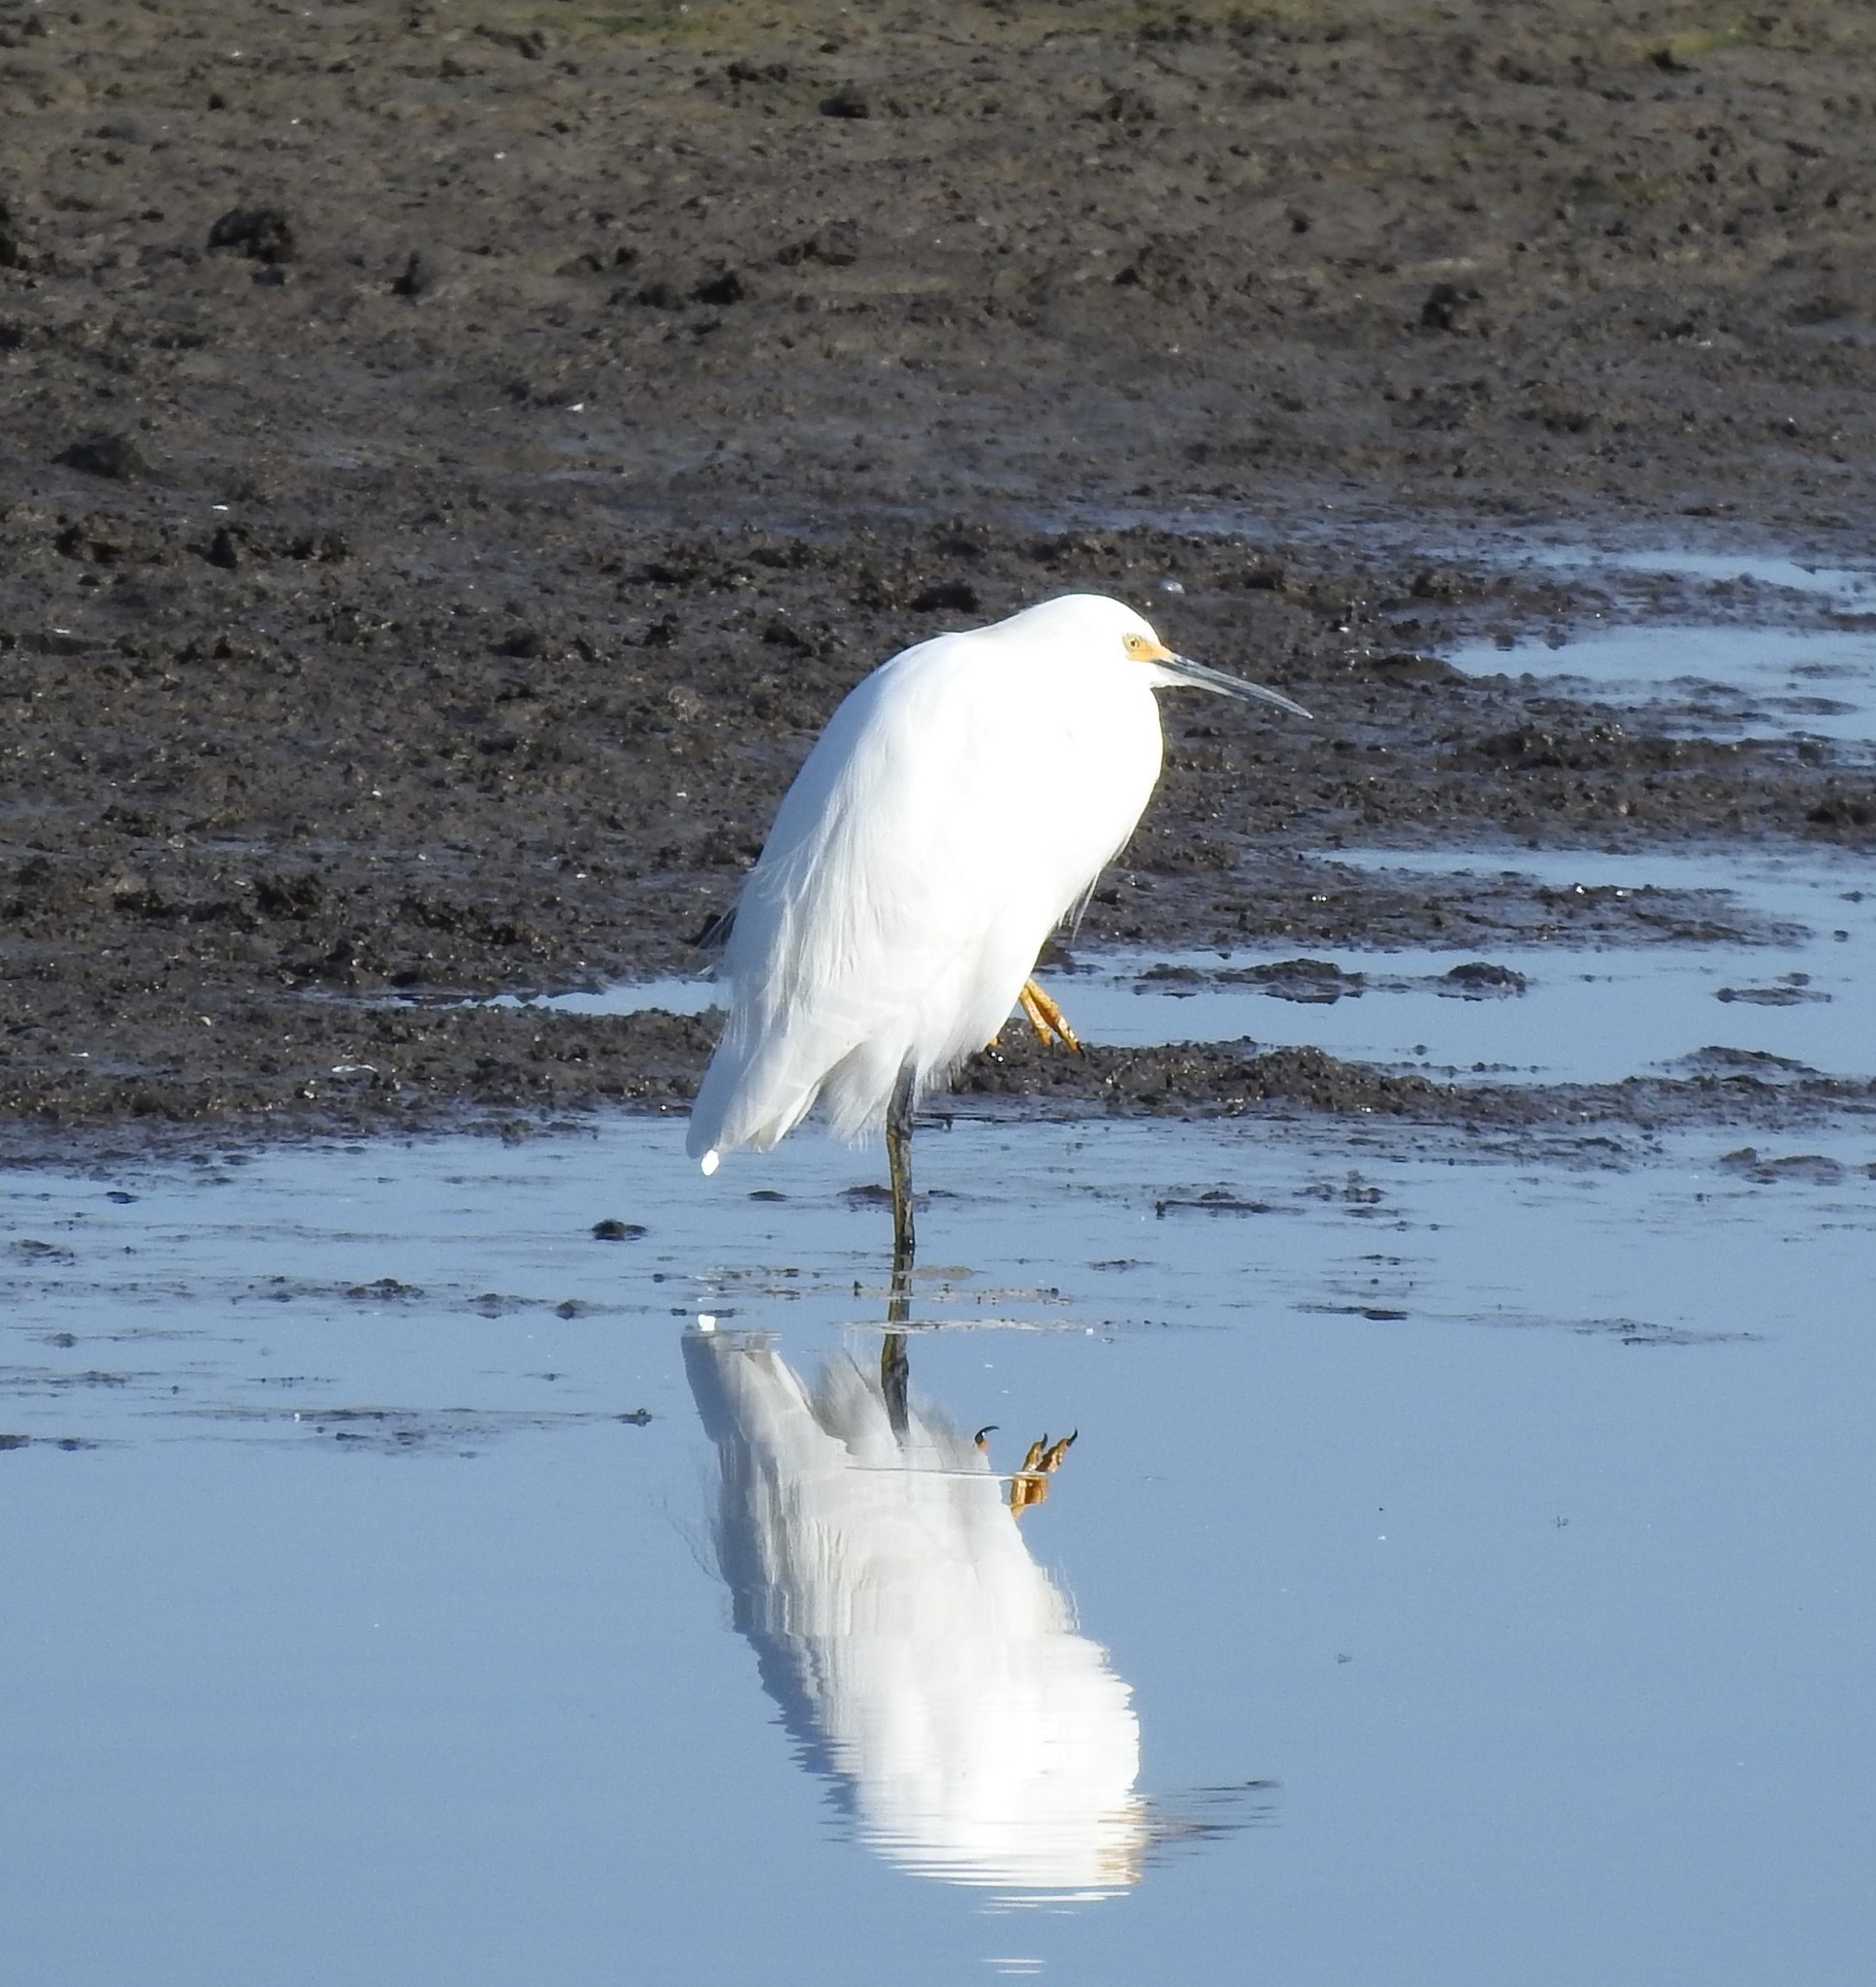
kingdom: Animalia
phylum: Chordata
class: Aves
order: Pelecaniformes
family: Ardeidae
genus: Egretta
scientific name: Egretta thula
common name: Snowy egret
